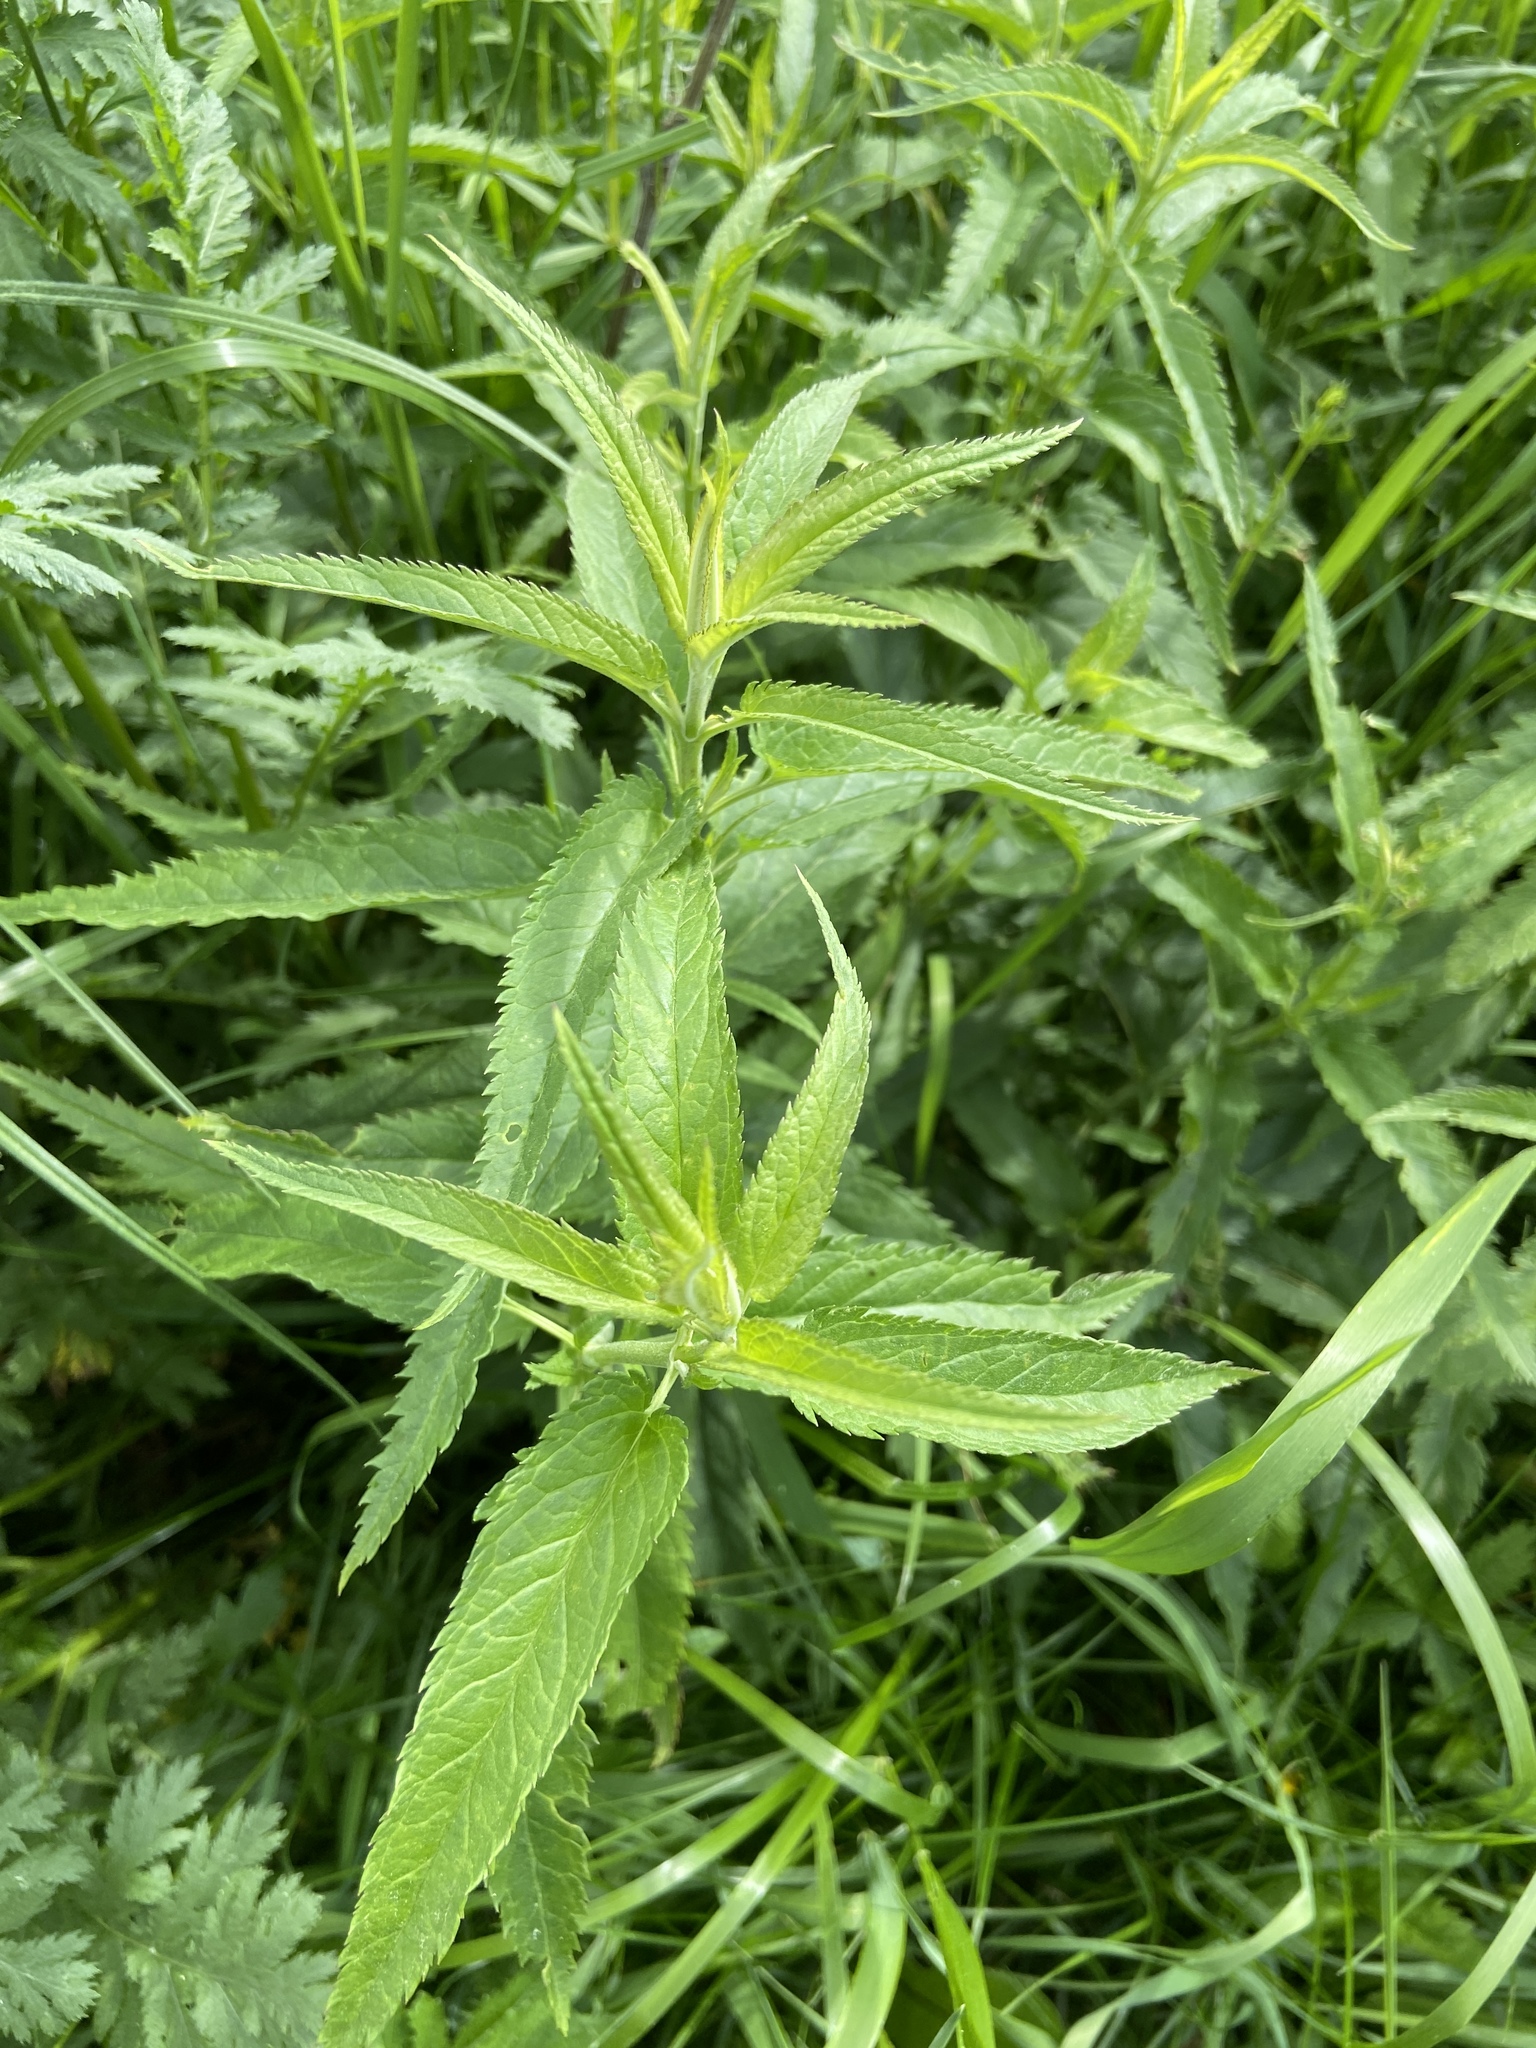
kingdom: Plantae
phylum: Tracheophyta
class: Magnoliopsida
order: Lamiales
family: Plantaginaceae
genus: Veronica
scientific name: Veronica longifolia
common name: Garden speedwell
